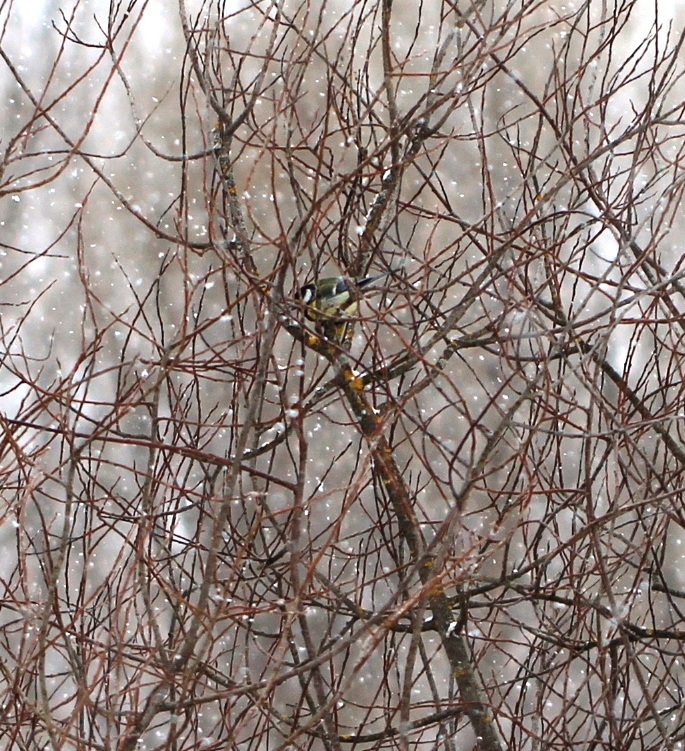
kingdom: Animalia
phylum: Chordata
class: Aves
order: Passeriformes
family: Paridae
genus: Parus
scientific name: Parus major
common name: Great tit
